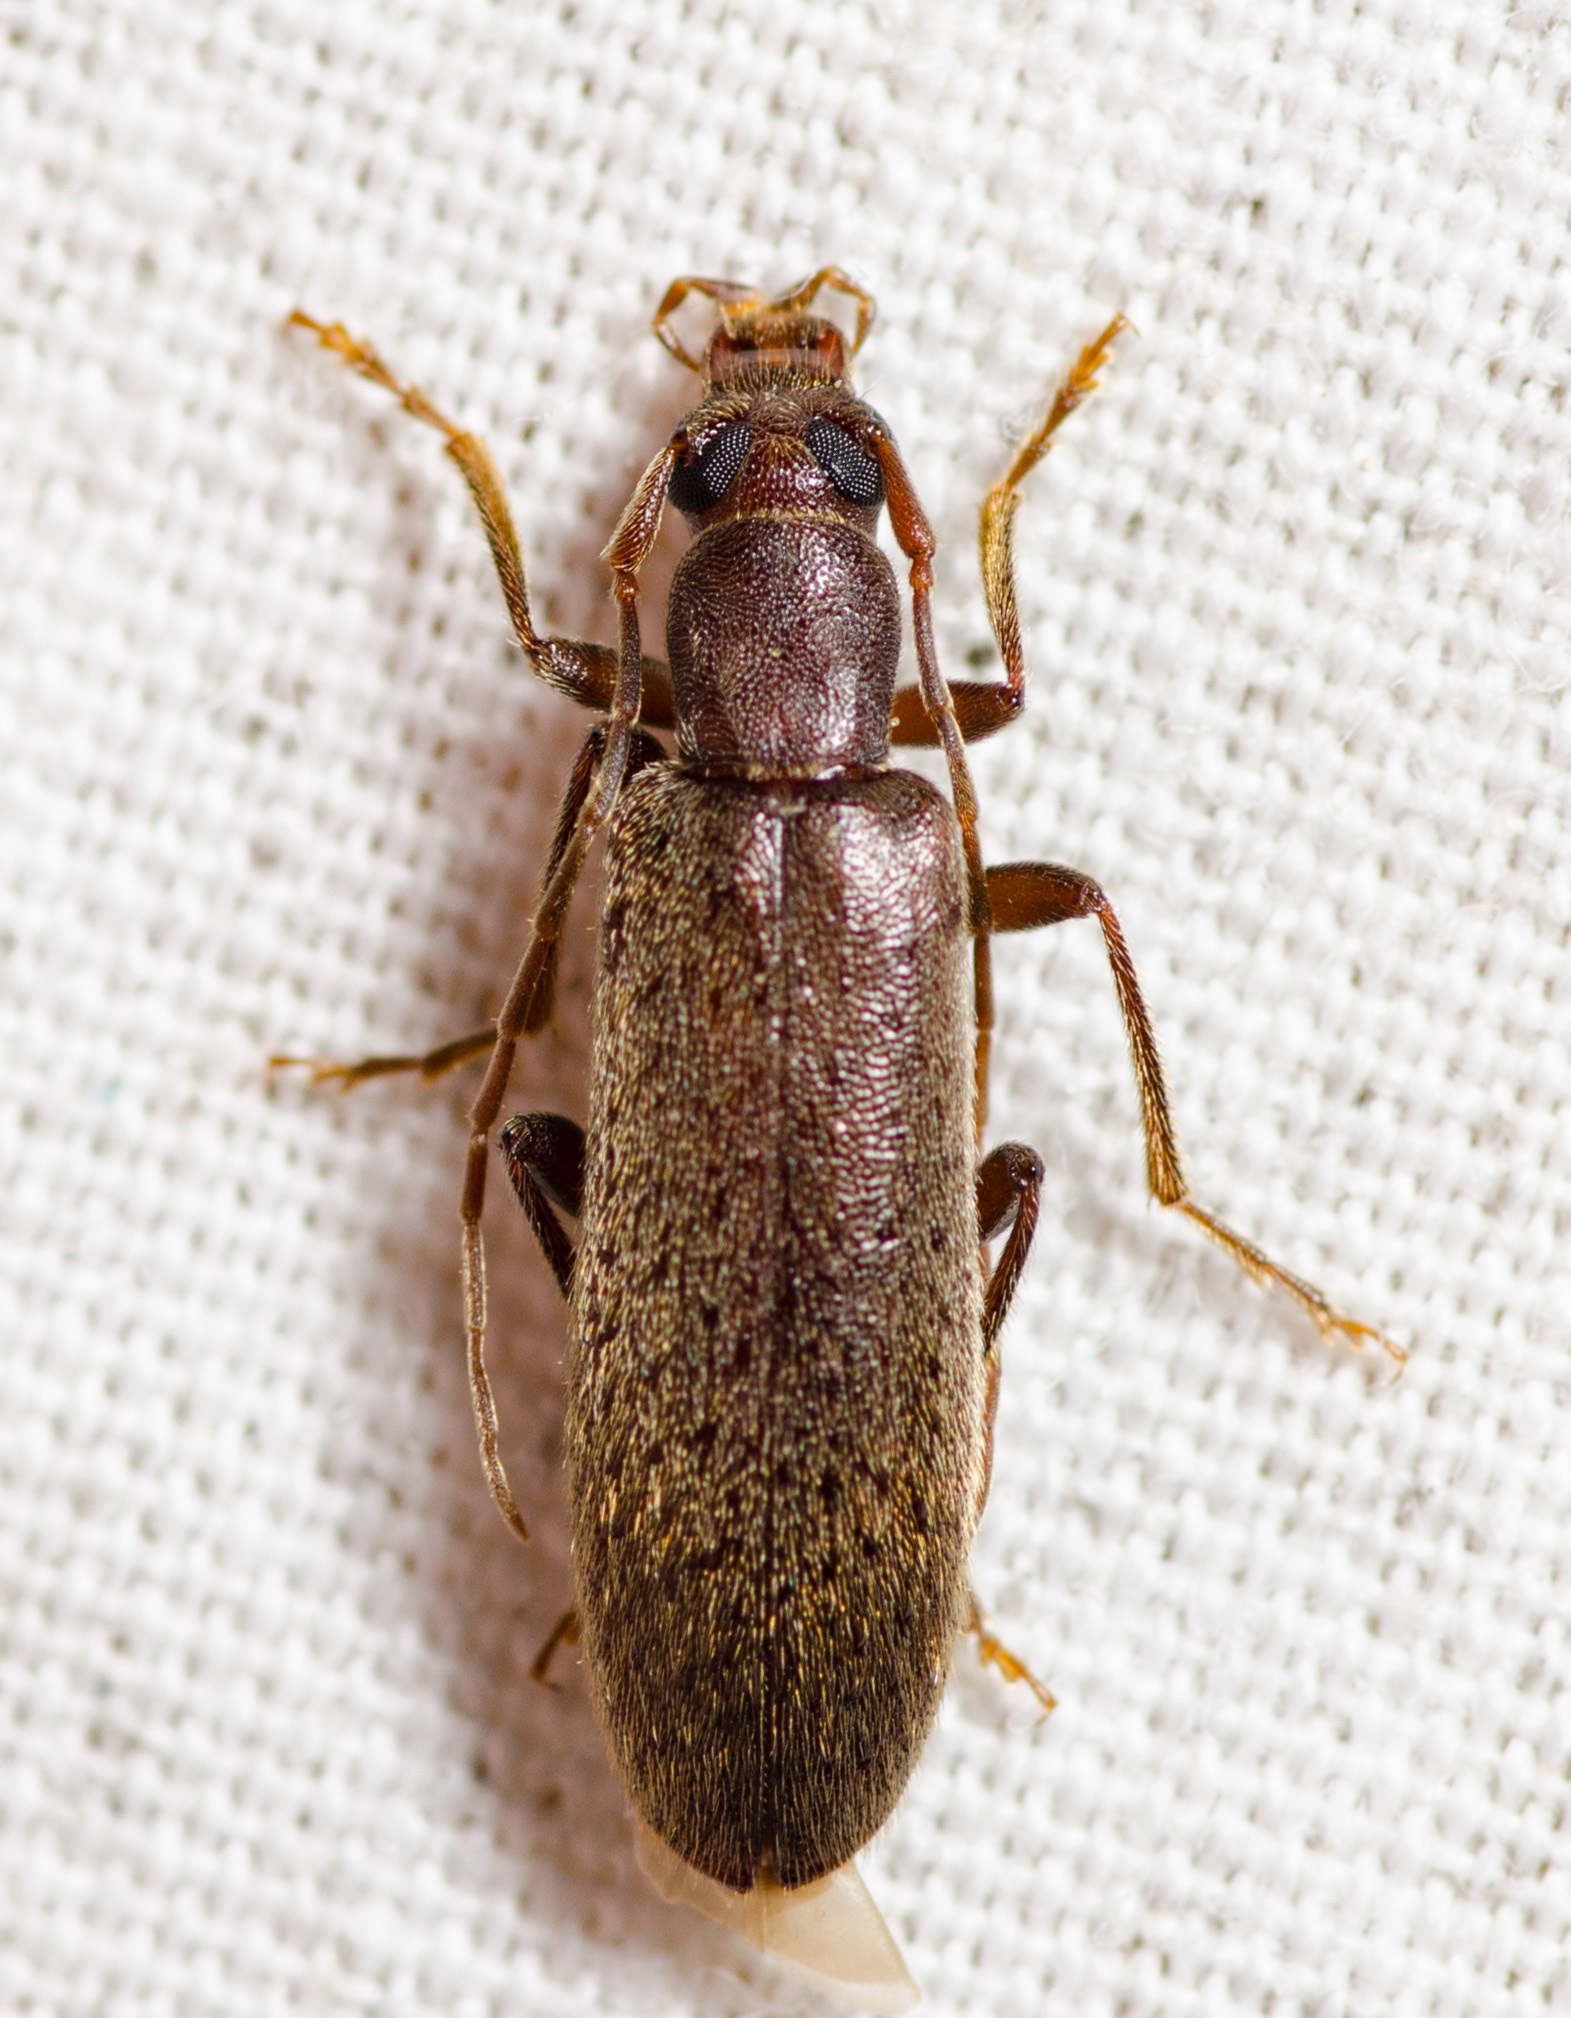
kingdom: Animalia
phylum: Arthropoda
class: Insecta
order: Coleoptera
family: Oedemeridae
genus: Sparedrus
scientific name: Sparedrus aspersus
